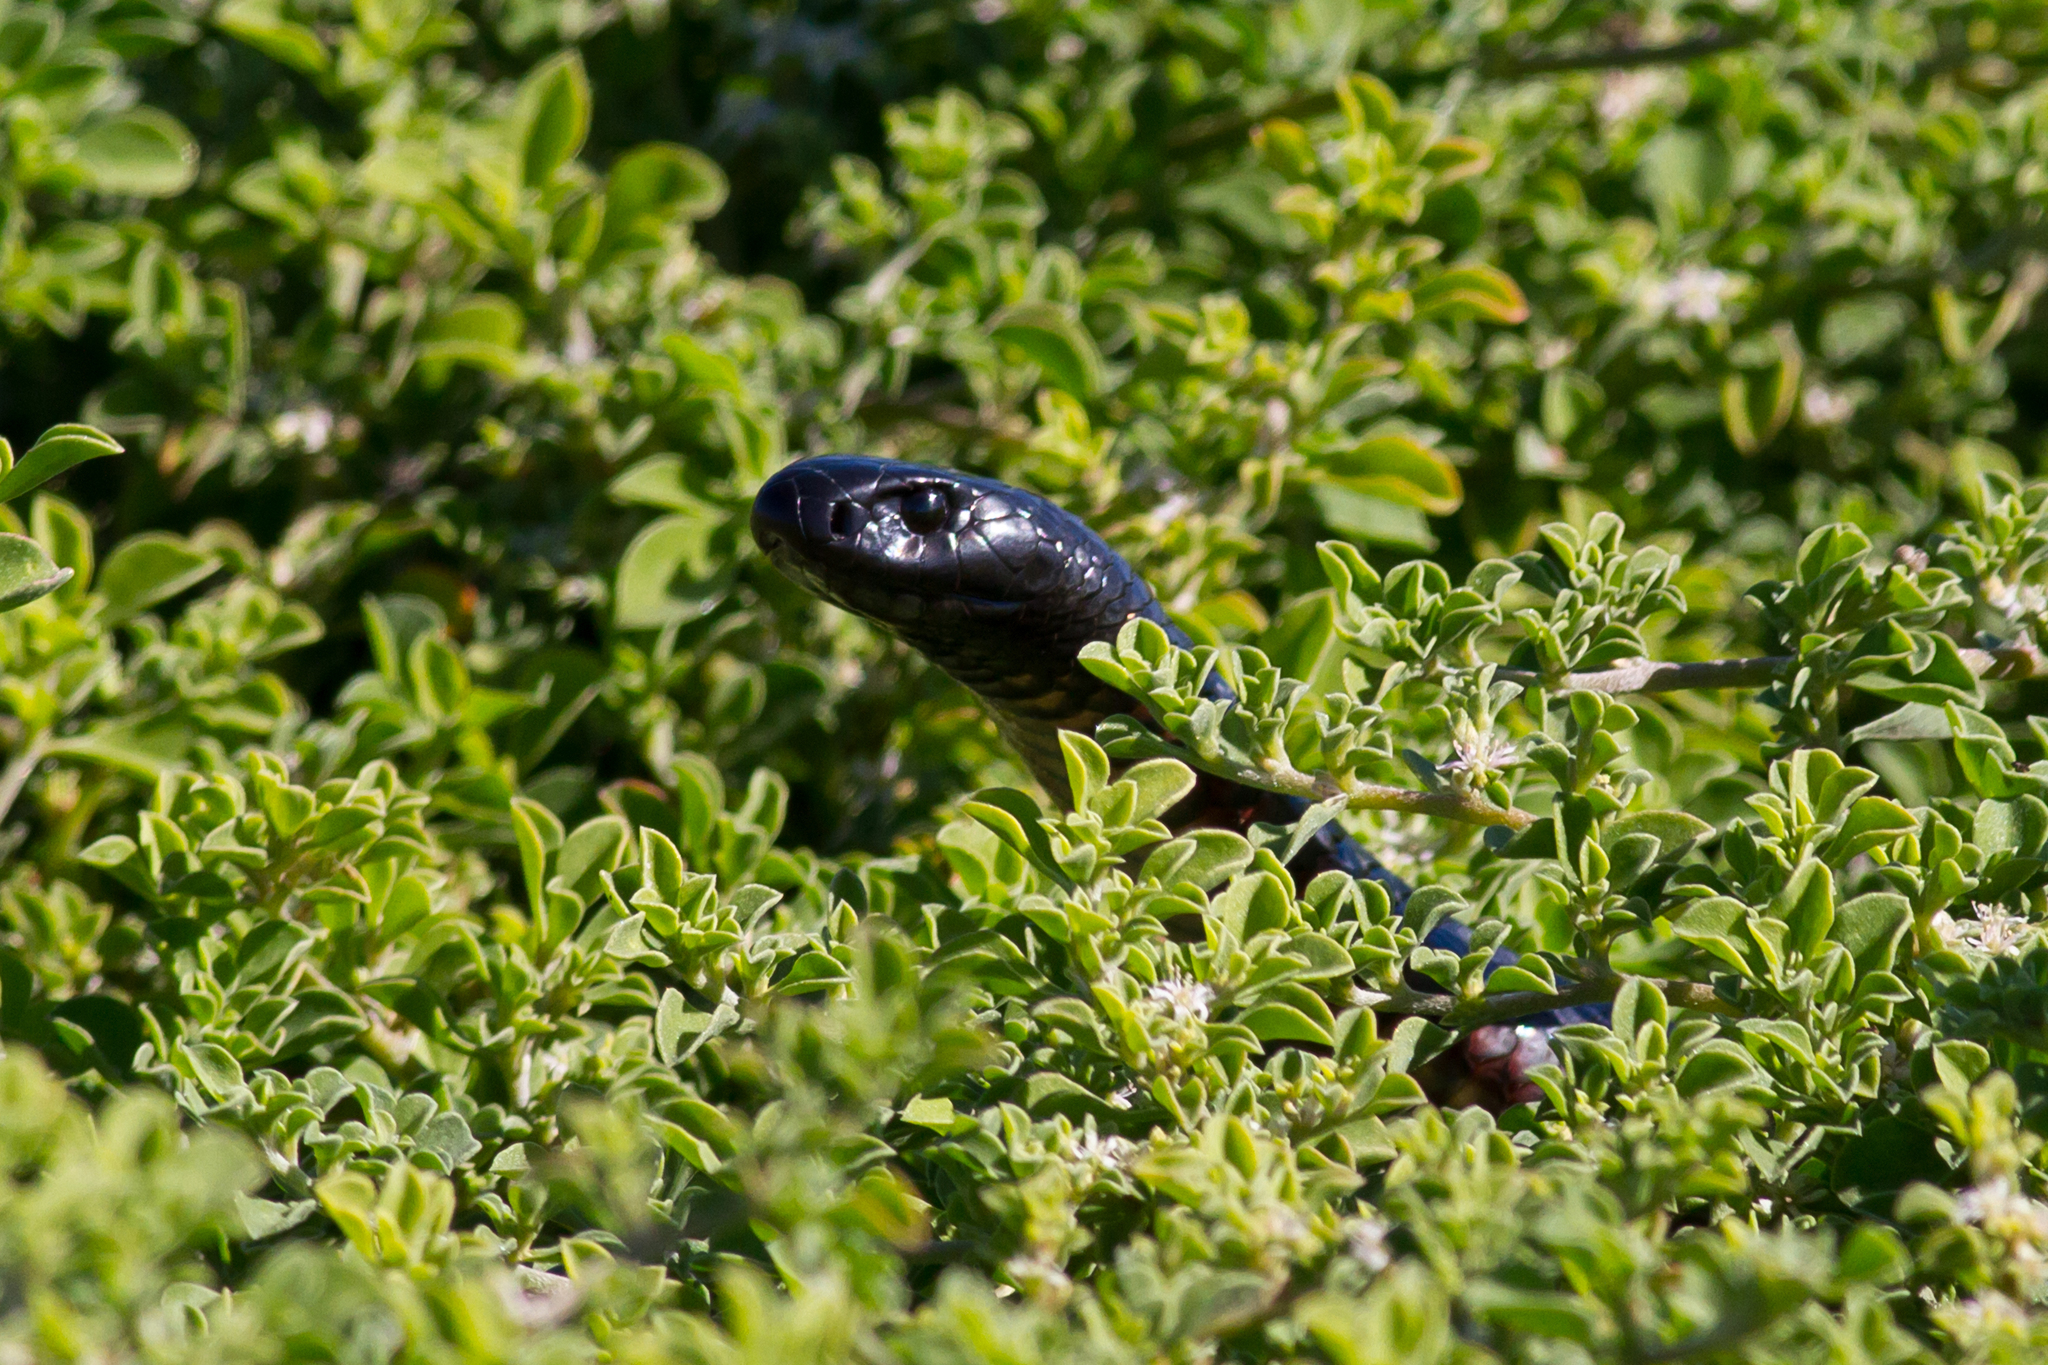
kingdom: Animalia
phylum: Chordata
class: Squamata
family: Elapidae
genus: Pseudechis
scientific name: Pseudechis porphyriacus
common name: Australian black snake
